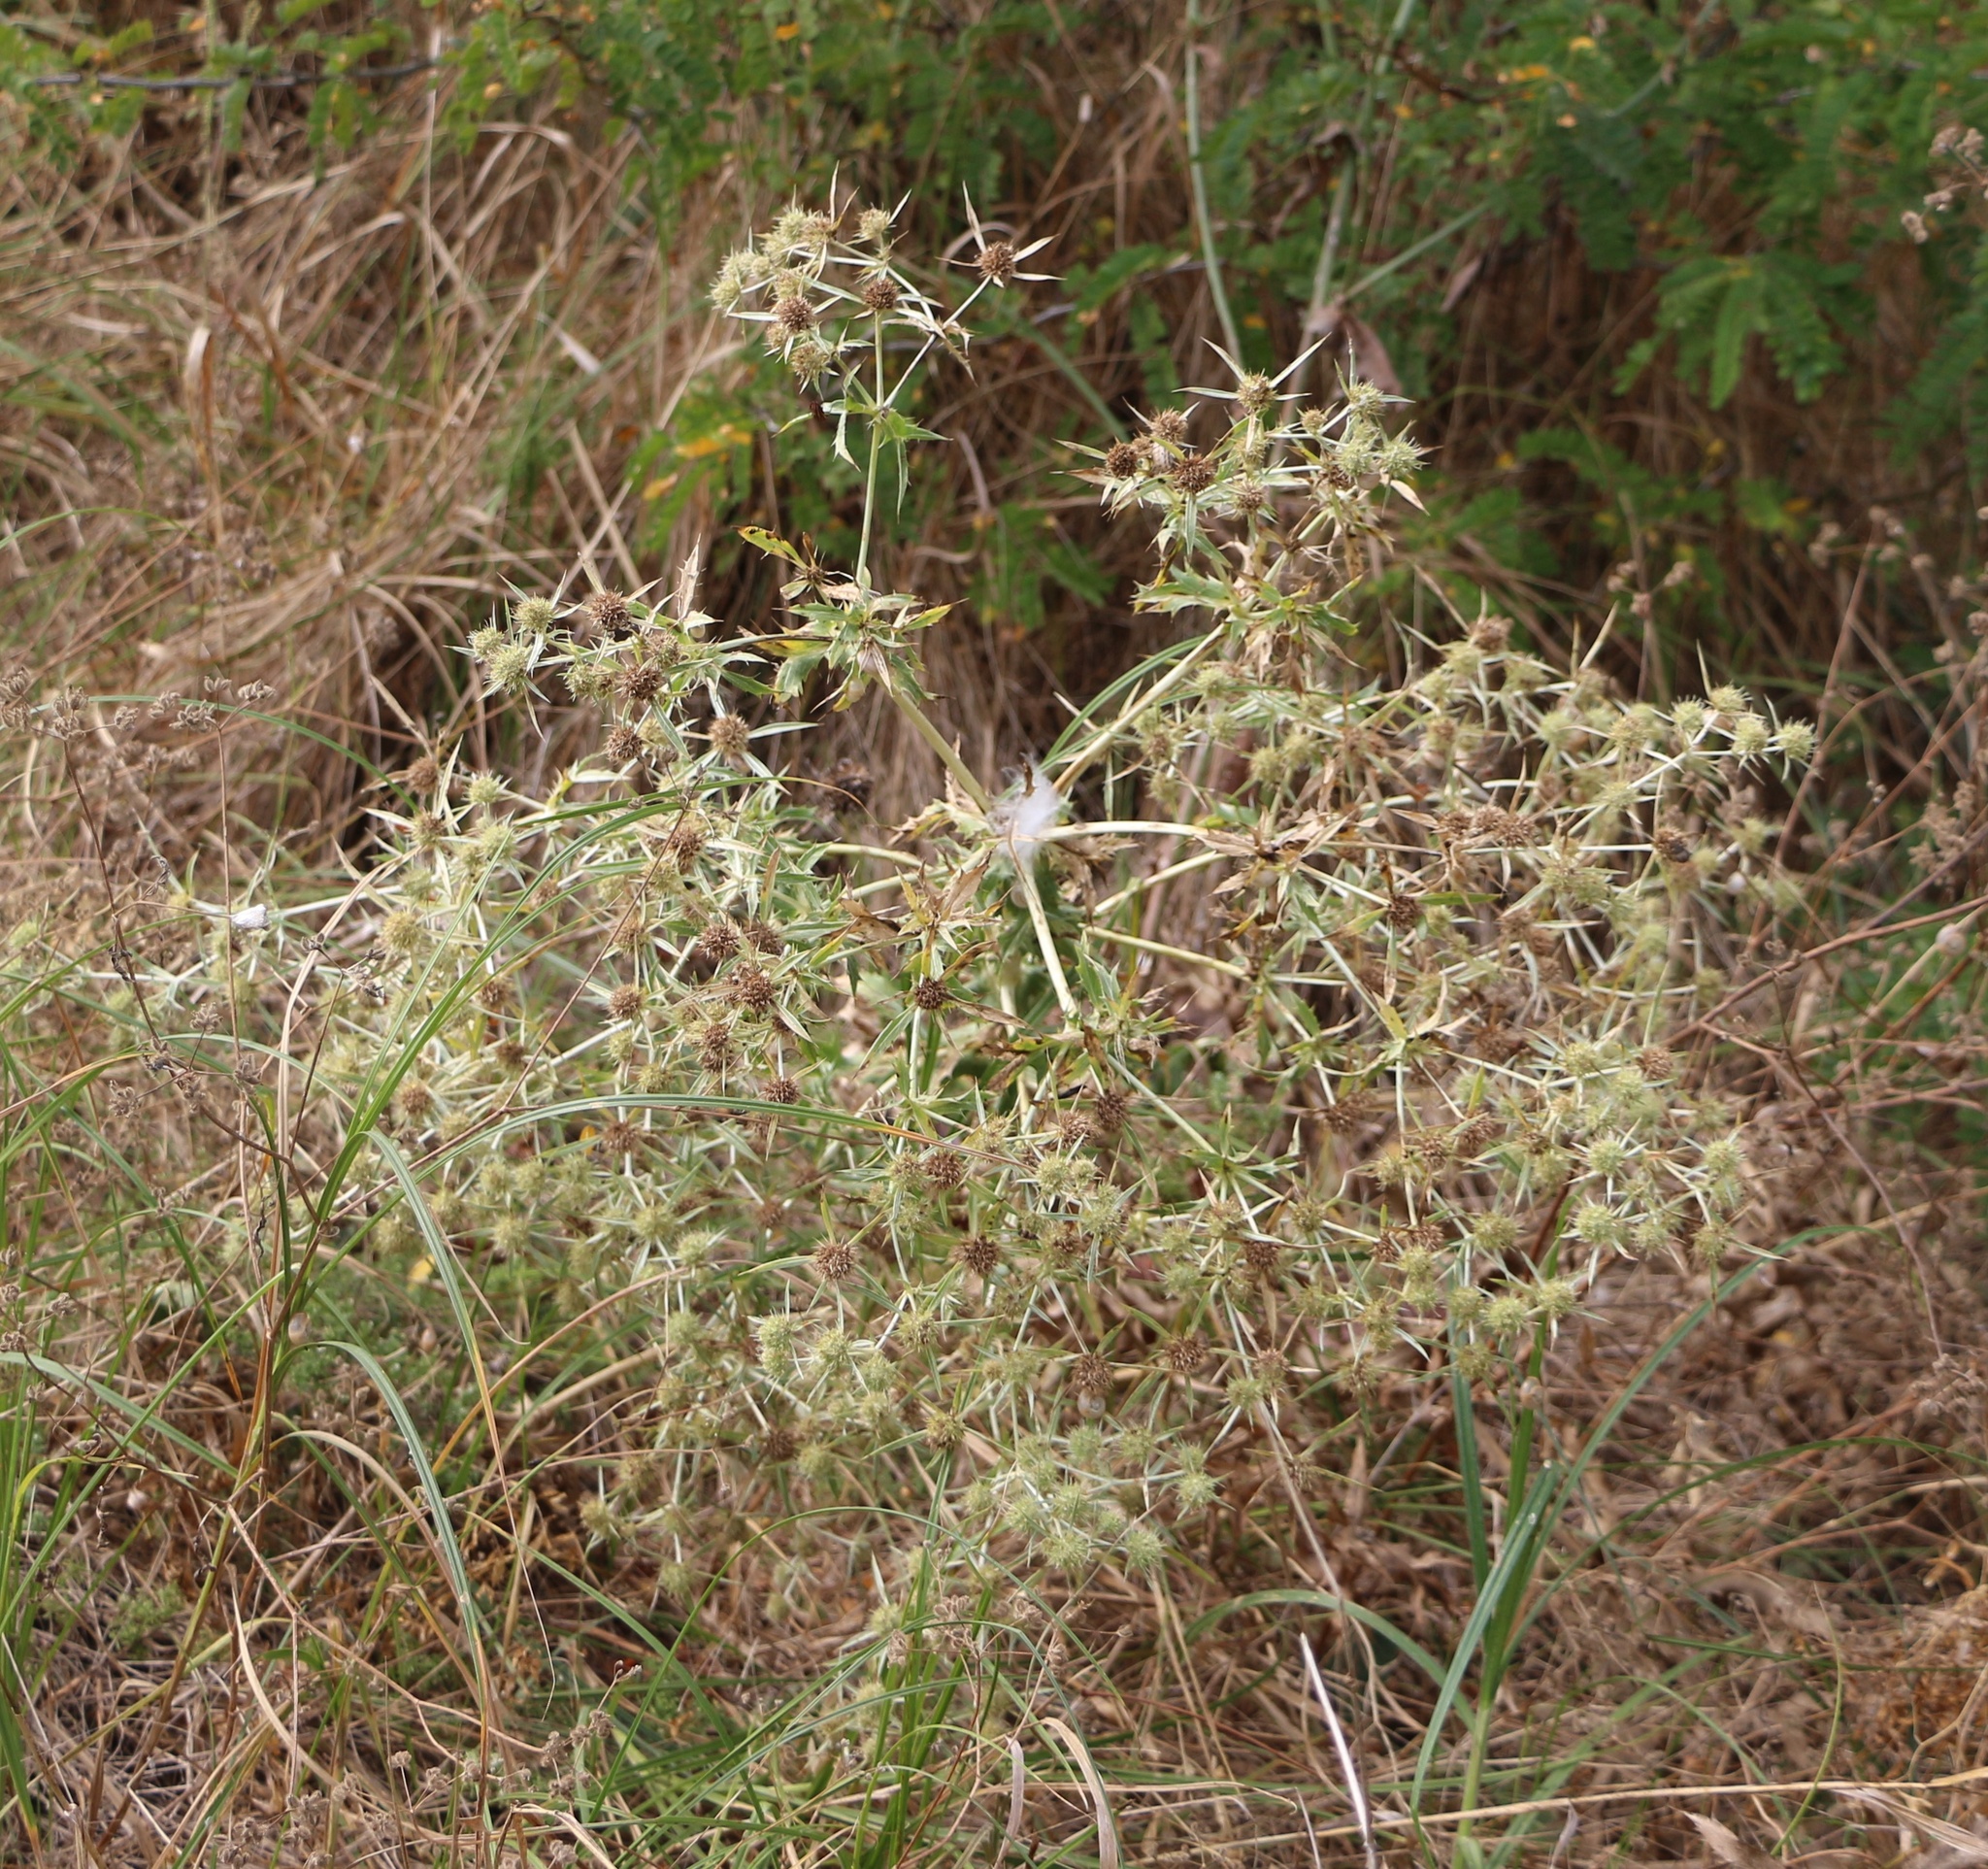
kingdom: Plantae
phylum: Tracheophyta
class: Magnoliopsida
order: Apiales
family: Apiaceae
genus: Eryngium
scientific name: Eryngium campestre
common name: Field eryngo
